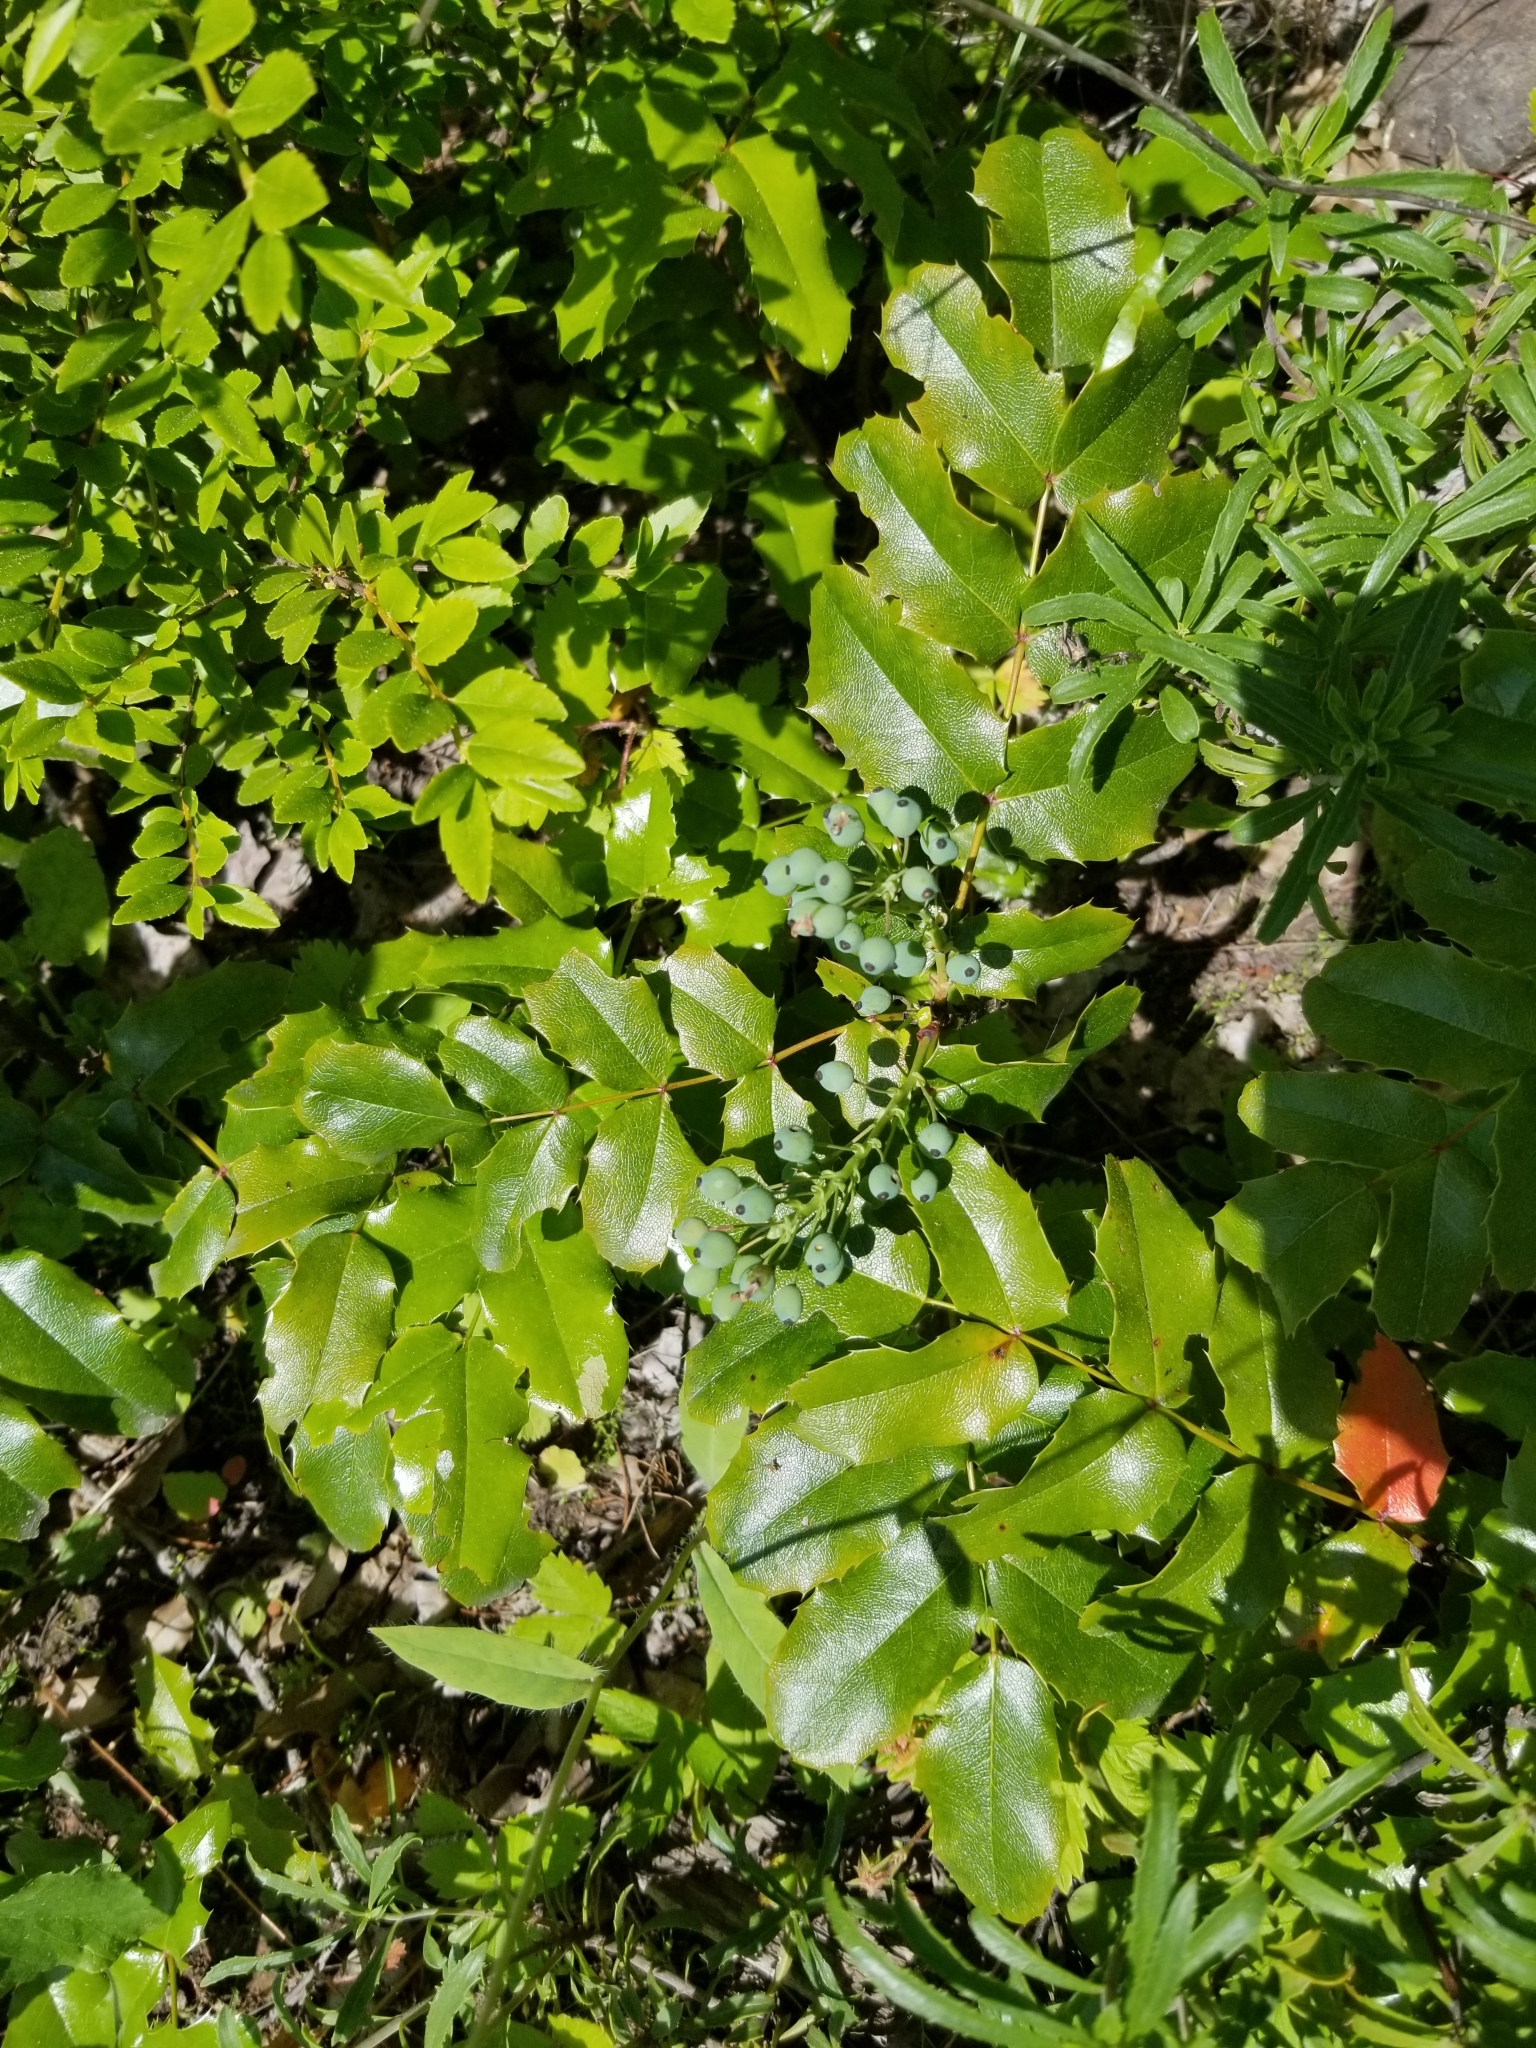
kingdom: Plantae
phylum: Tracheophyta
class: Magnoliopsida
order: Ranunculales
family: Berberidaceae
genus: Mahonia
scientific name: Mahonia aquifolium
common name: Oregon-grape
